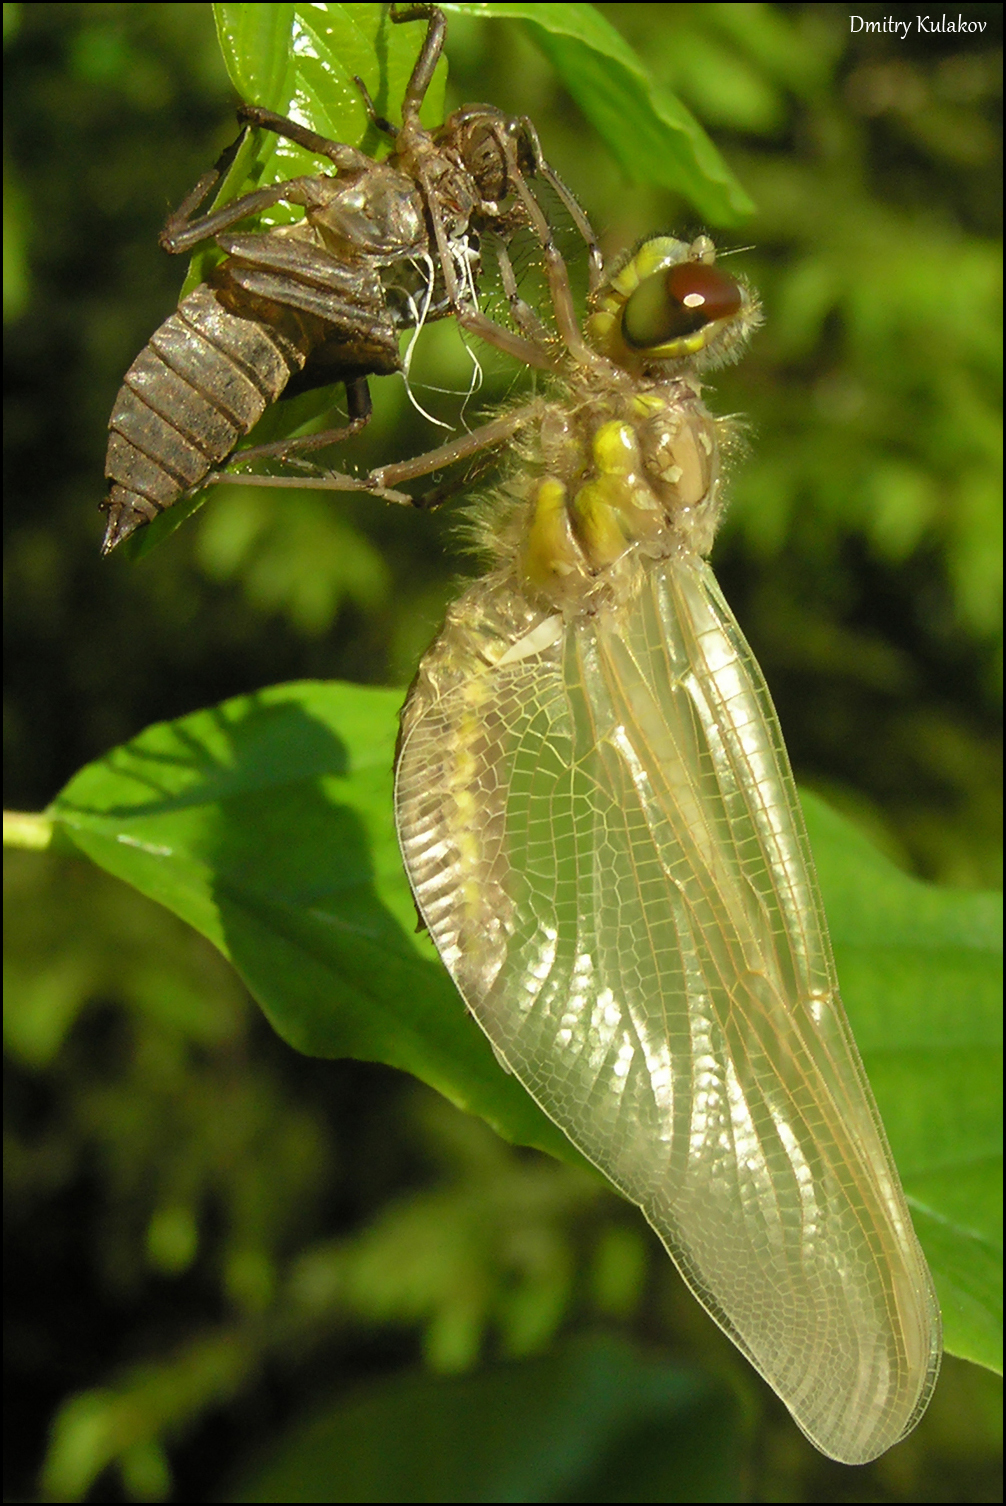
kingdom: Animalia
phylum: Arthropoda
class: Insecta
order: Odonata
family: Libellulidae
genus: Libellula
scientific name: Libellula quadrimaculata
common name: Four-spotted chaser
